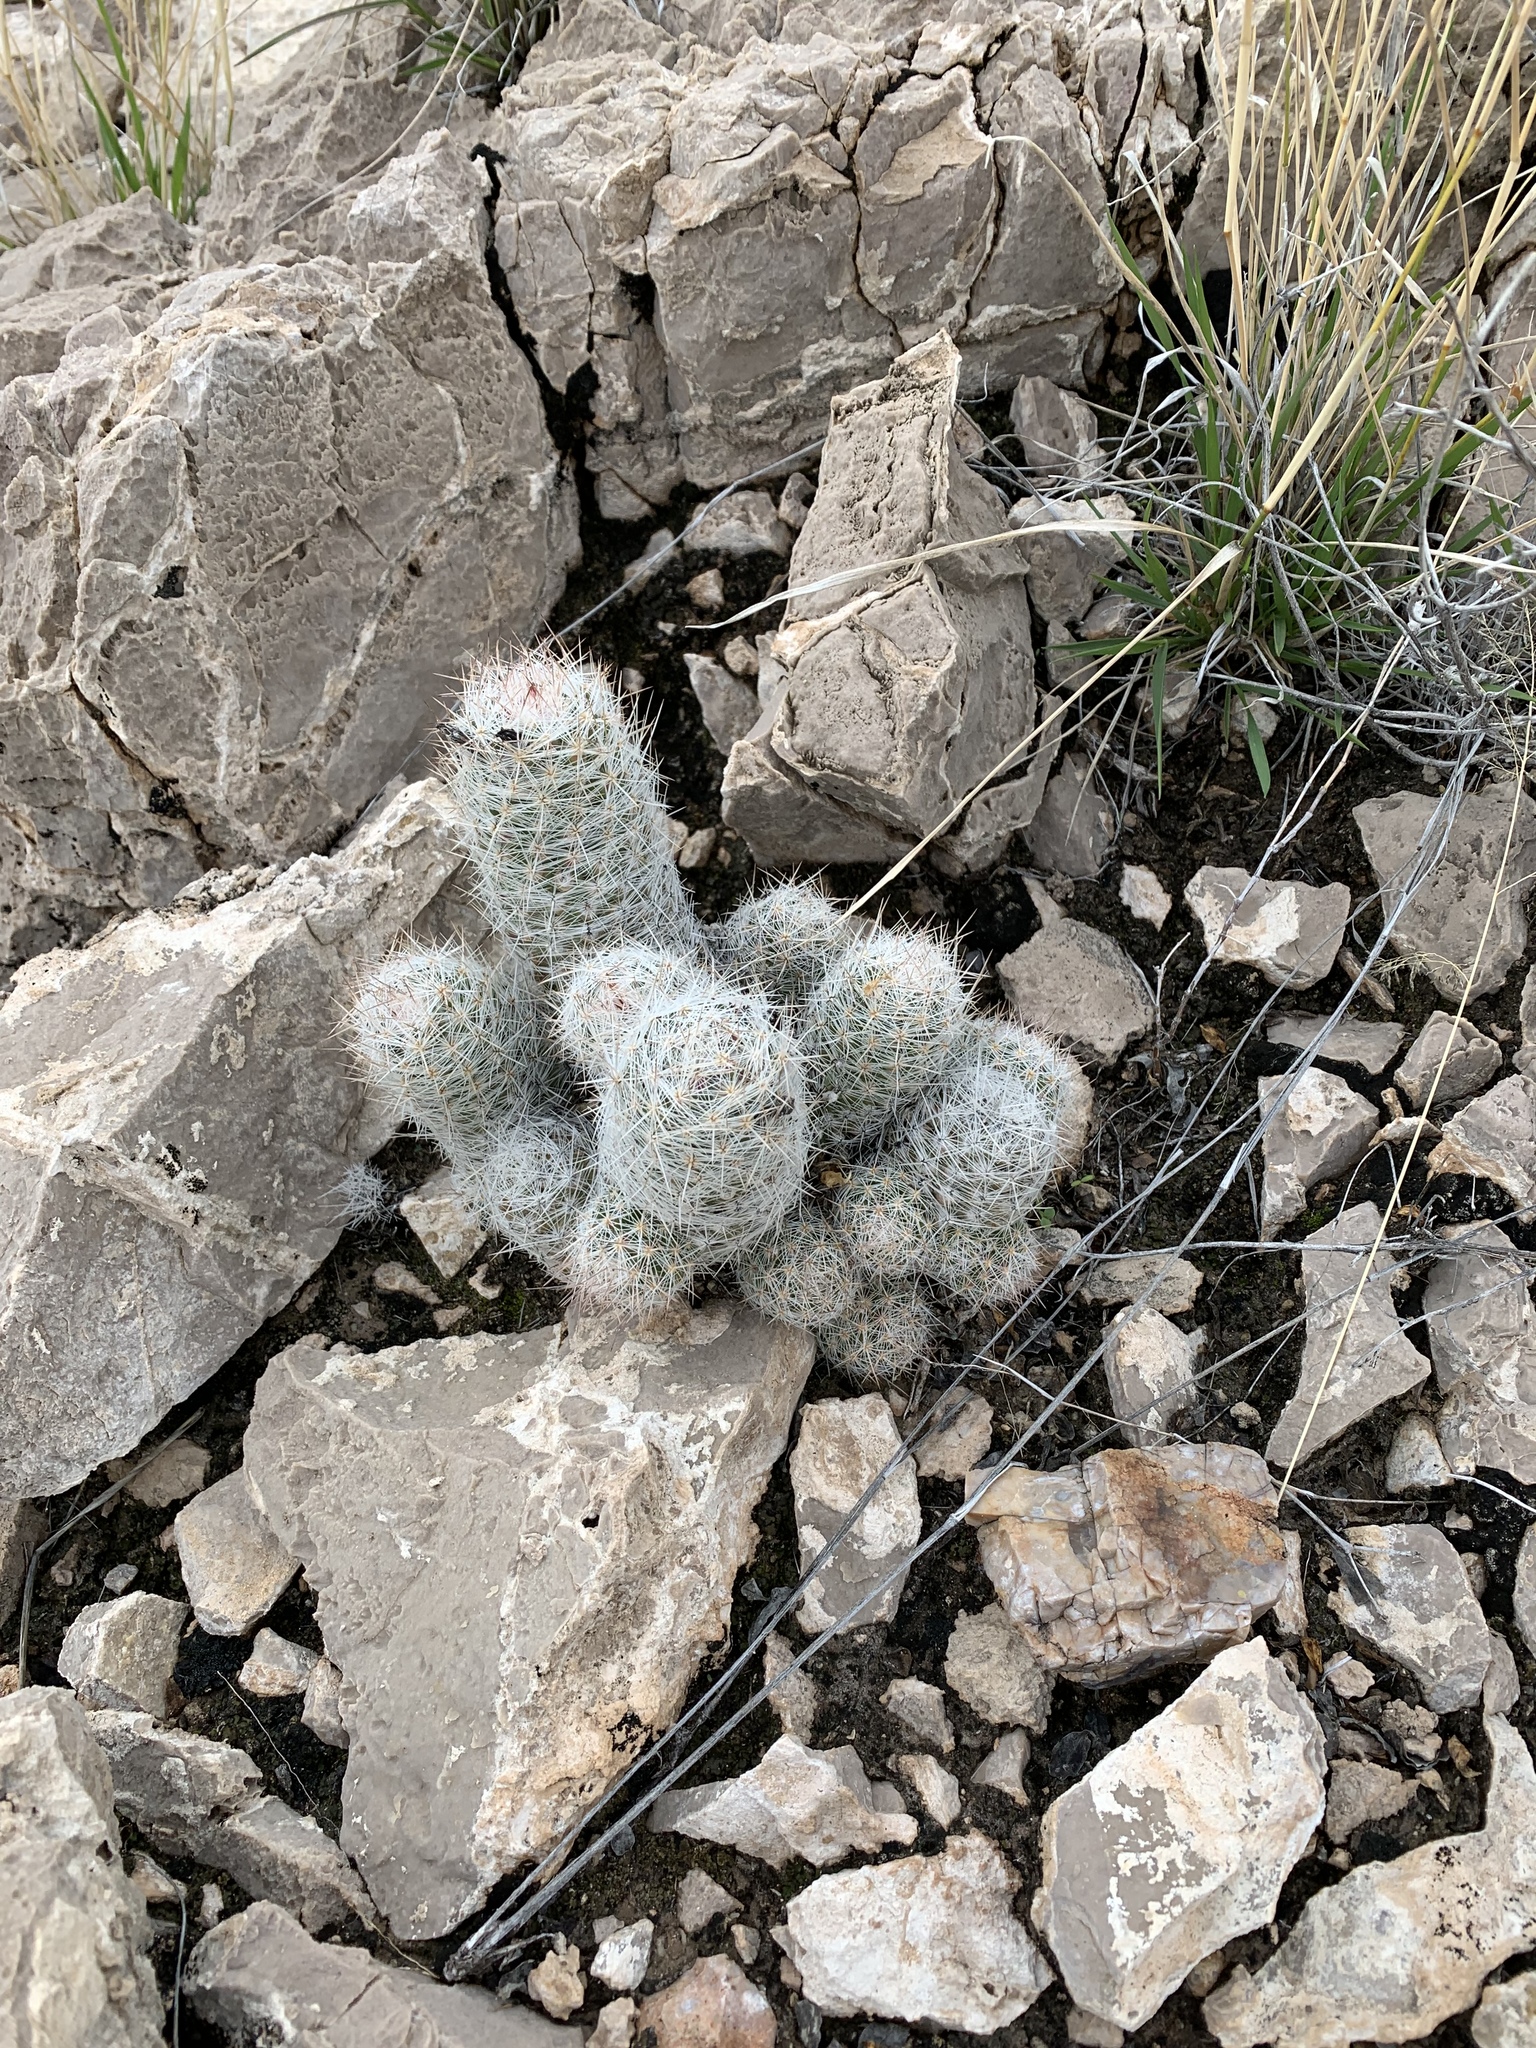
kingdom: Plantae
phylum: Tracheophyta
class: Magnoliopsida
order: Caryophyllales
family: Cactaceae
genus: Pelecyphora
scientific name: Pelecyphora tuberculosa
